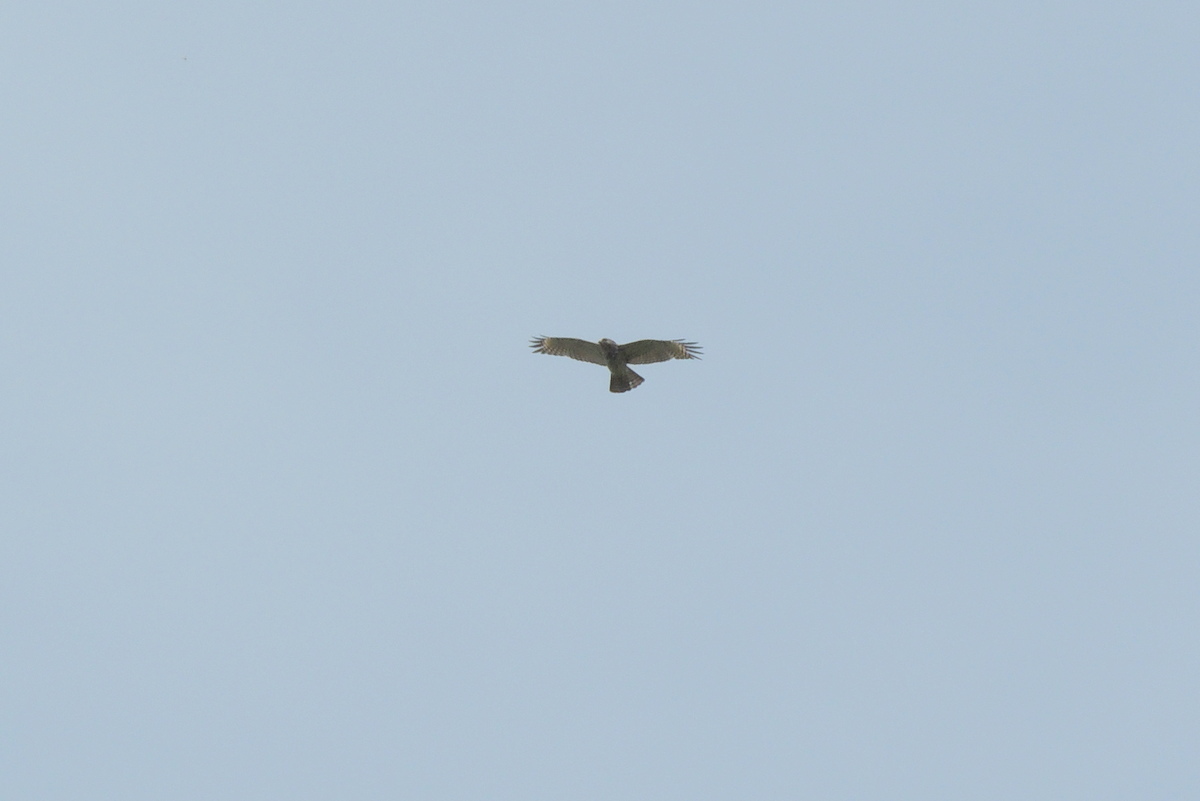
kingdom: Animalia
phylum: Chordata
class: Aves
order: Accipitriformes
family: Accipitridae
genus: Buteo
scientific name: Buteo lineatus
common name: Red-shouldered hawk
